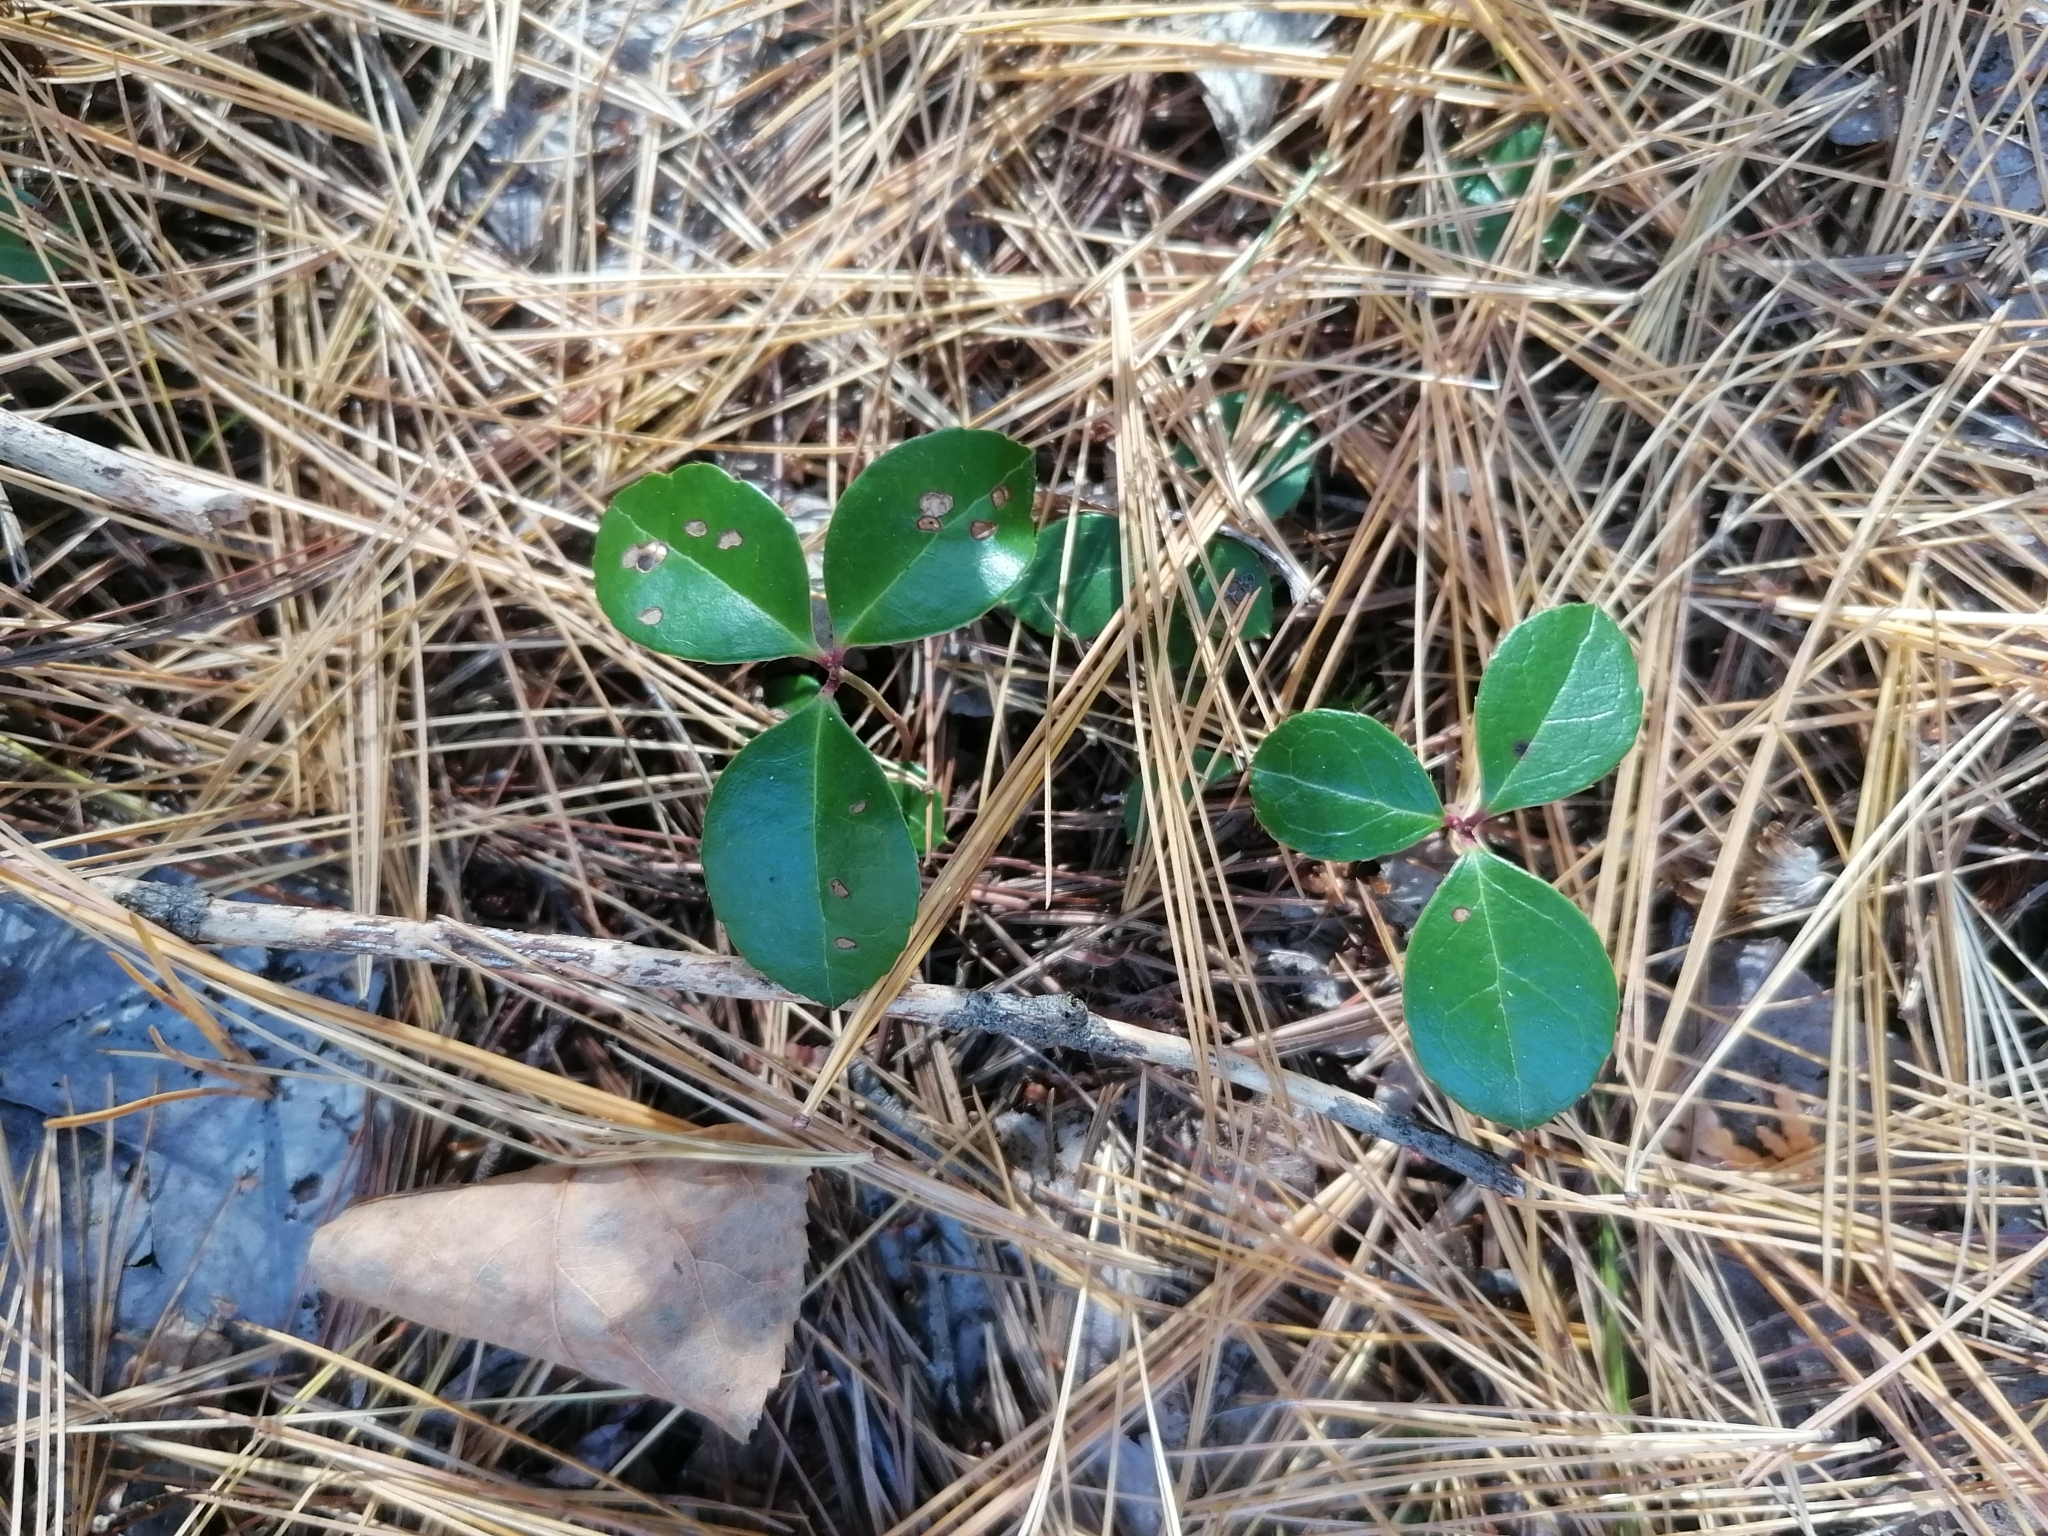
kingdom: Plantae
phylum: Tracheophyta
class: Magnoliopsida
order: Ericales
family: Ericaceae
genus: Gaultheria
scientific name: Gaultheria procumbens
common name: Checkerberry
